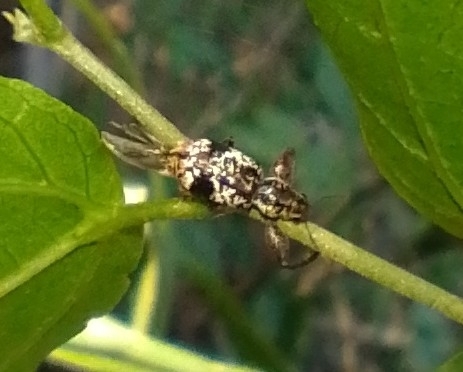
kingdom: Animalia
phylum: Arthropoda
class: Insecta
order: Coleoptera
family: Curculionidae
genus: Hadromeropsis
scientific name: Hadromeropsis argentinensis
